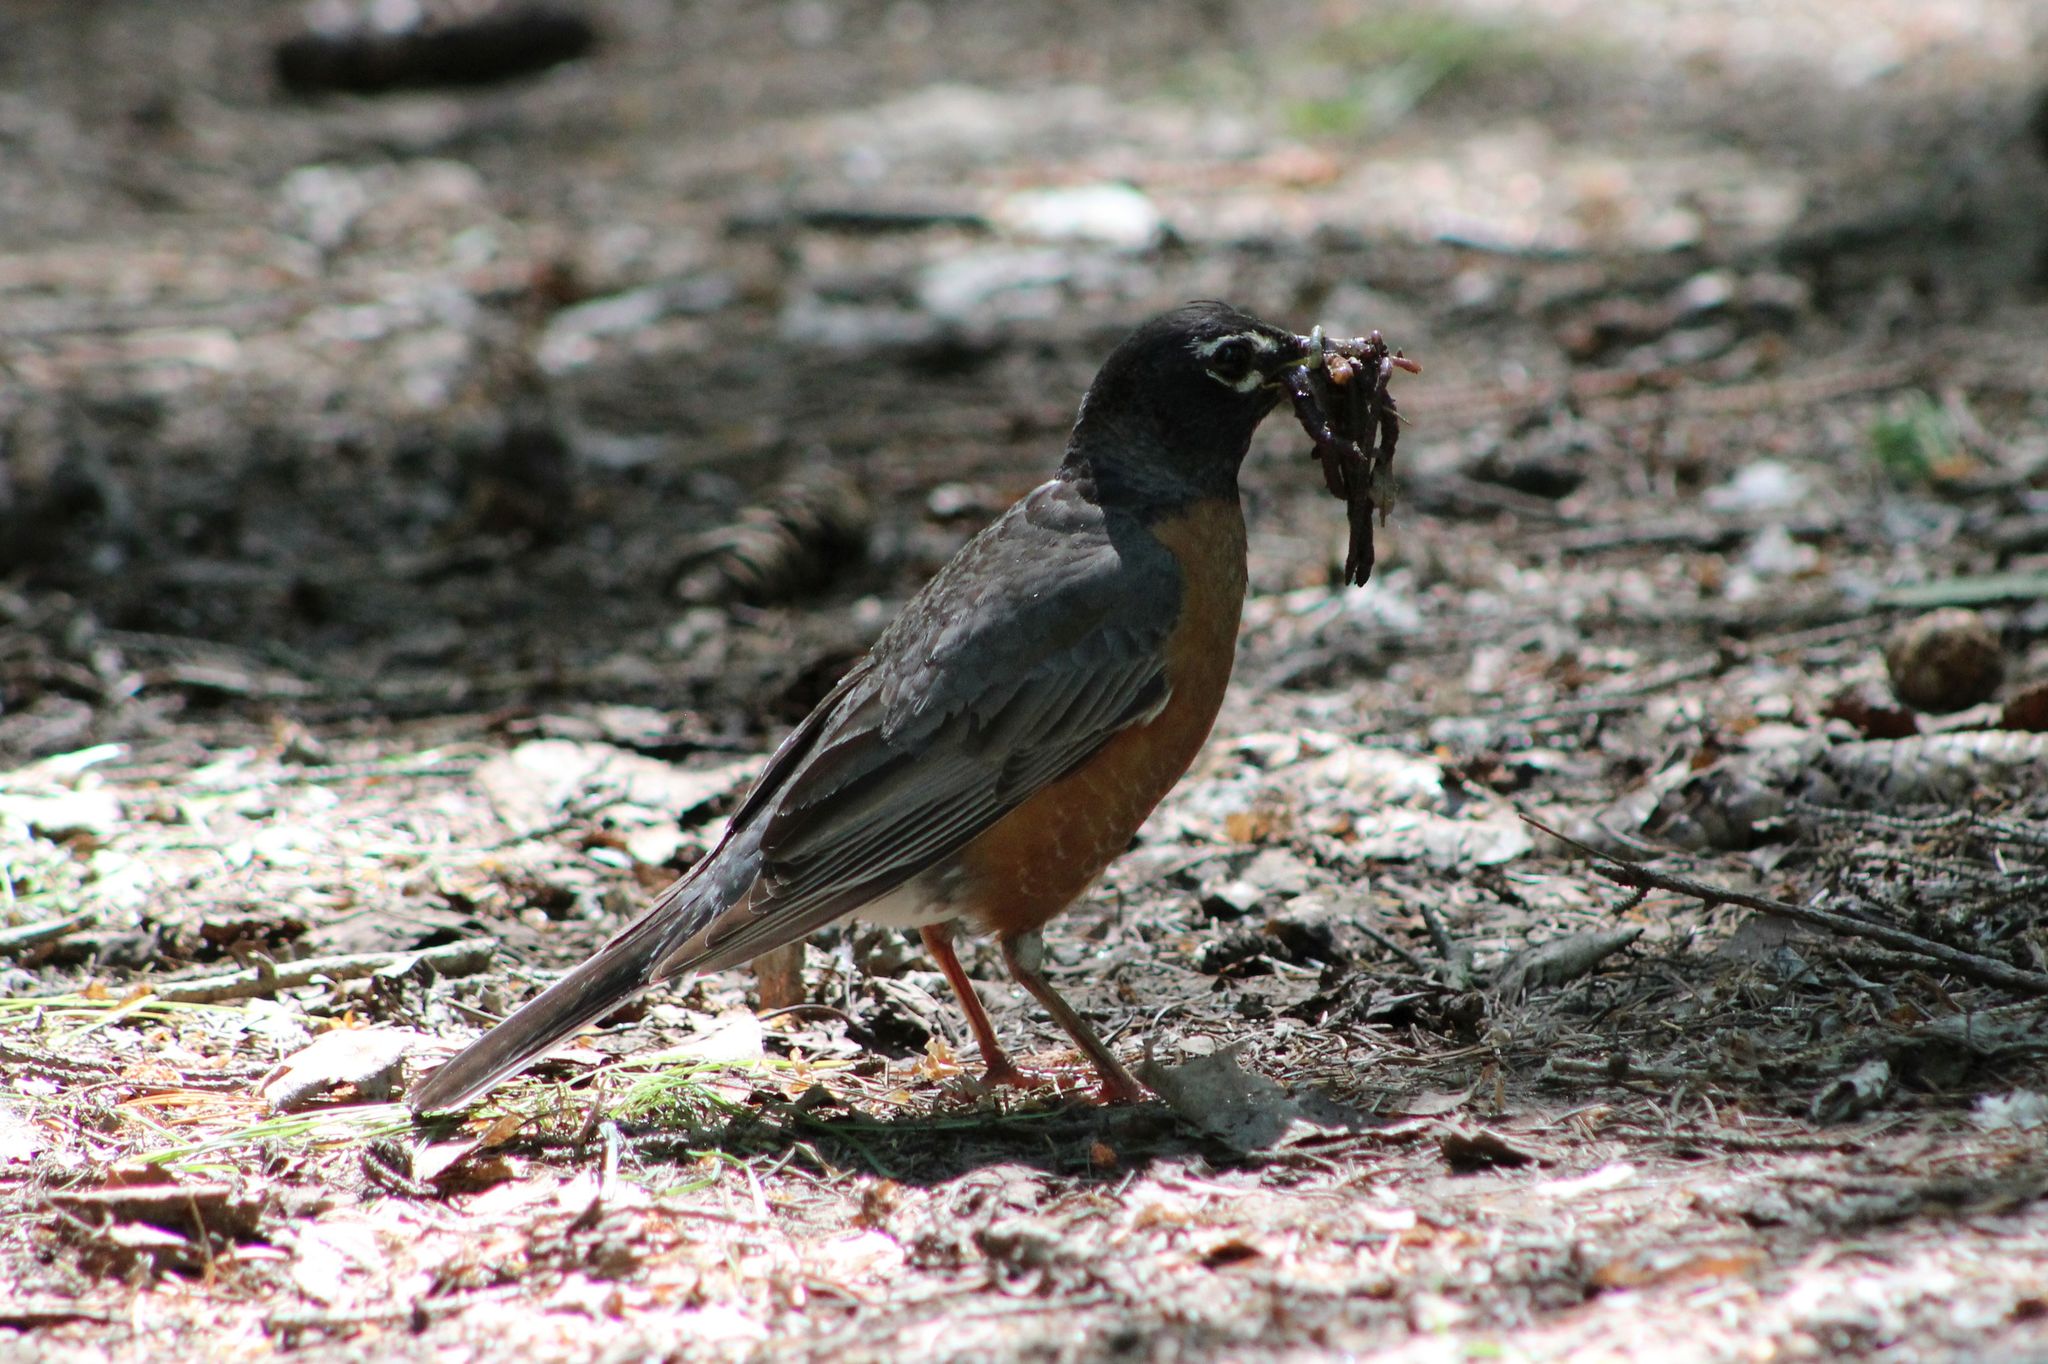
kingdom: Animalia
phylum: Chordata
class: Aves
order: Passeriformes
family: Turdidae
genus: Turdus
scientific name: Turdus migratorius
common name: American robin
